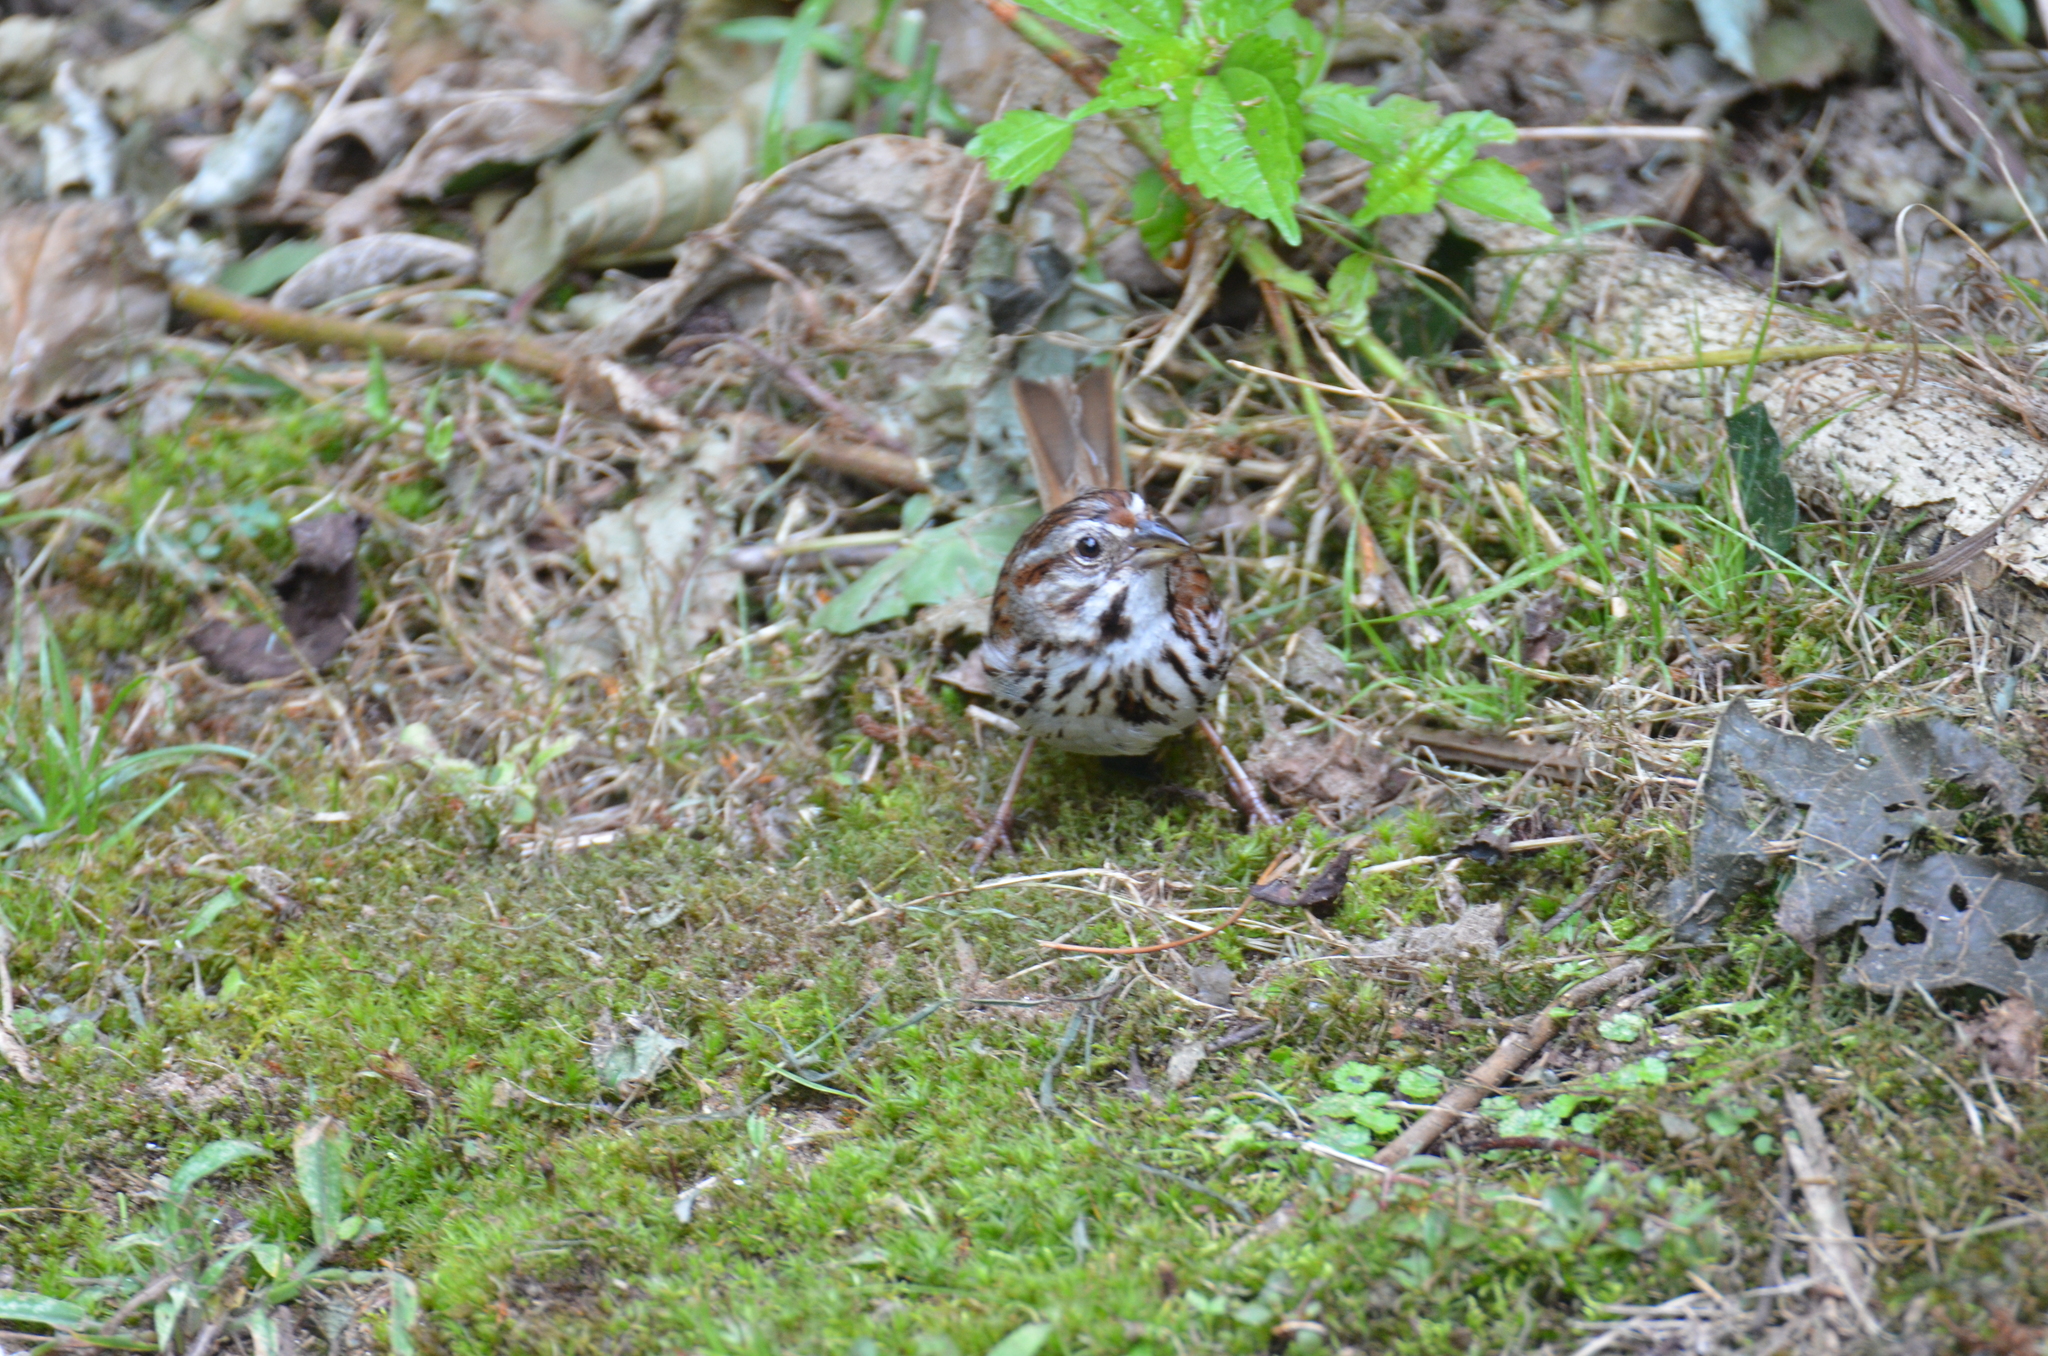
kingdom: Animalia
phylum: Chordata
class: Aves
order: Passeriformes
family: Passerellidae
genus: Melospiza
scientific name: Melospiza melodia
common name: Song sparrow
